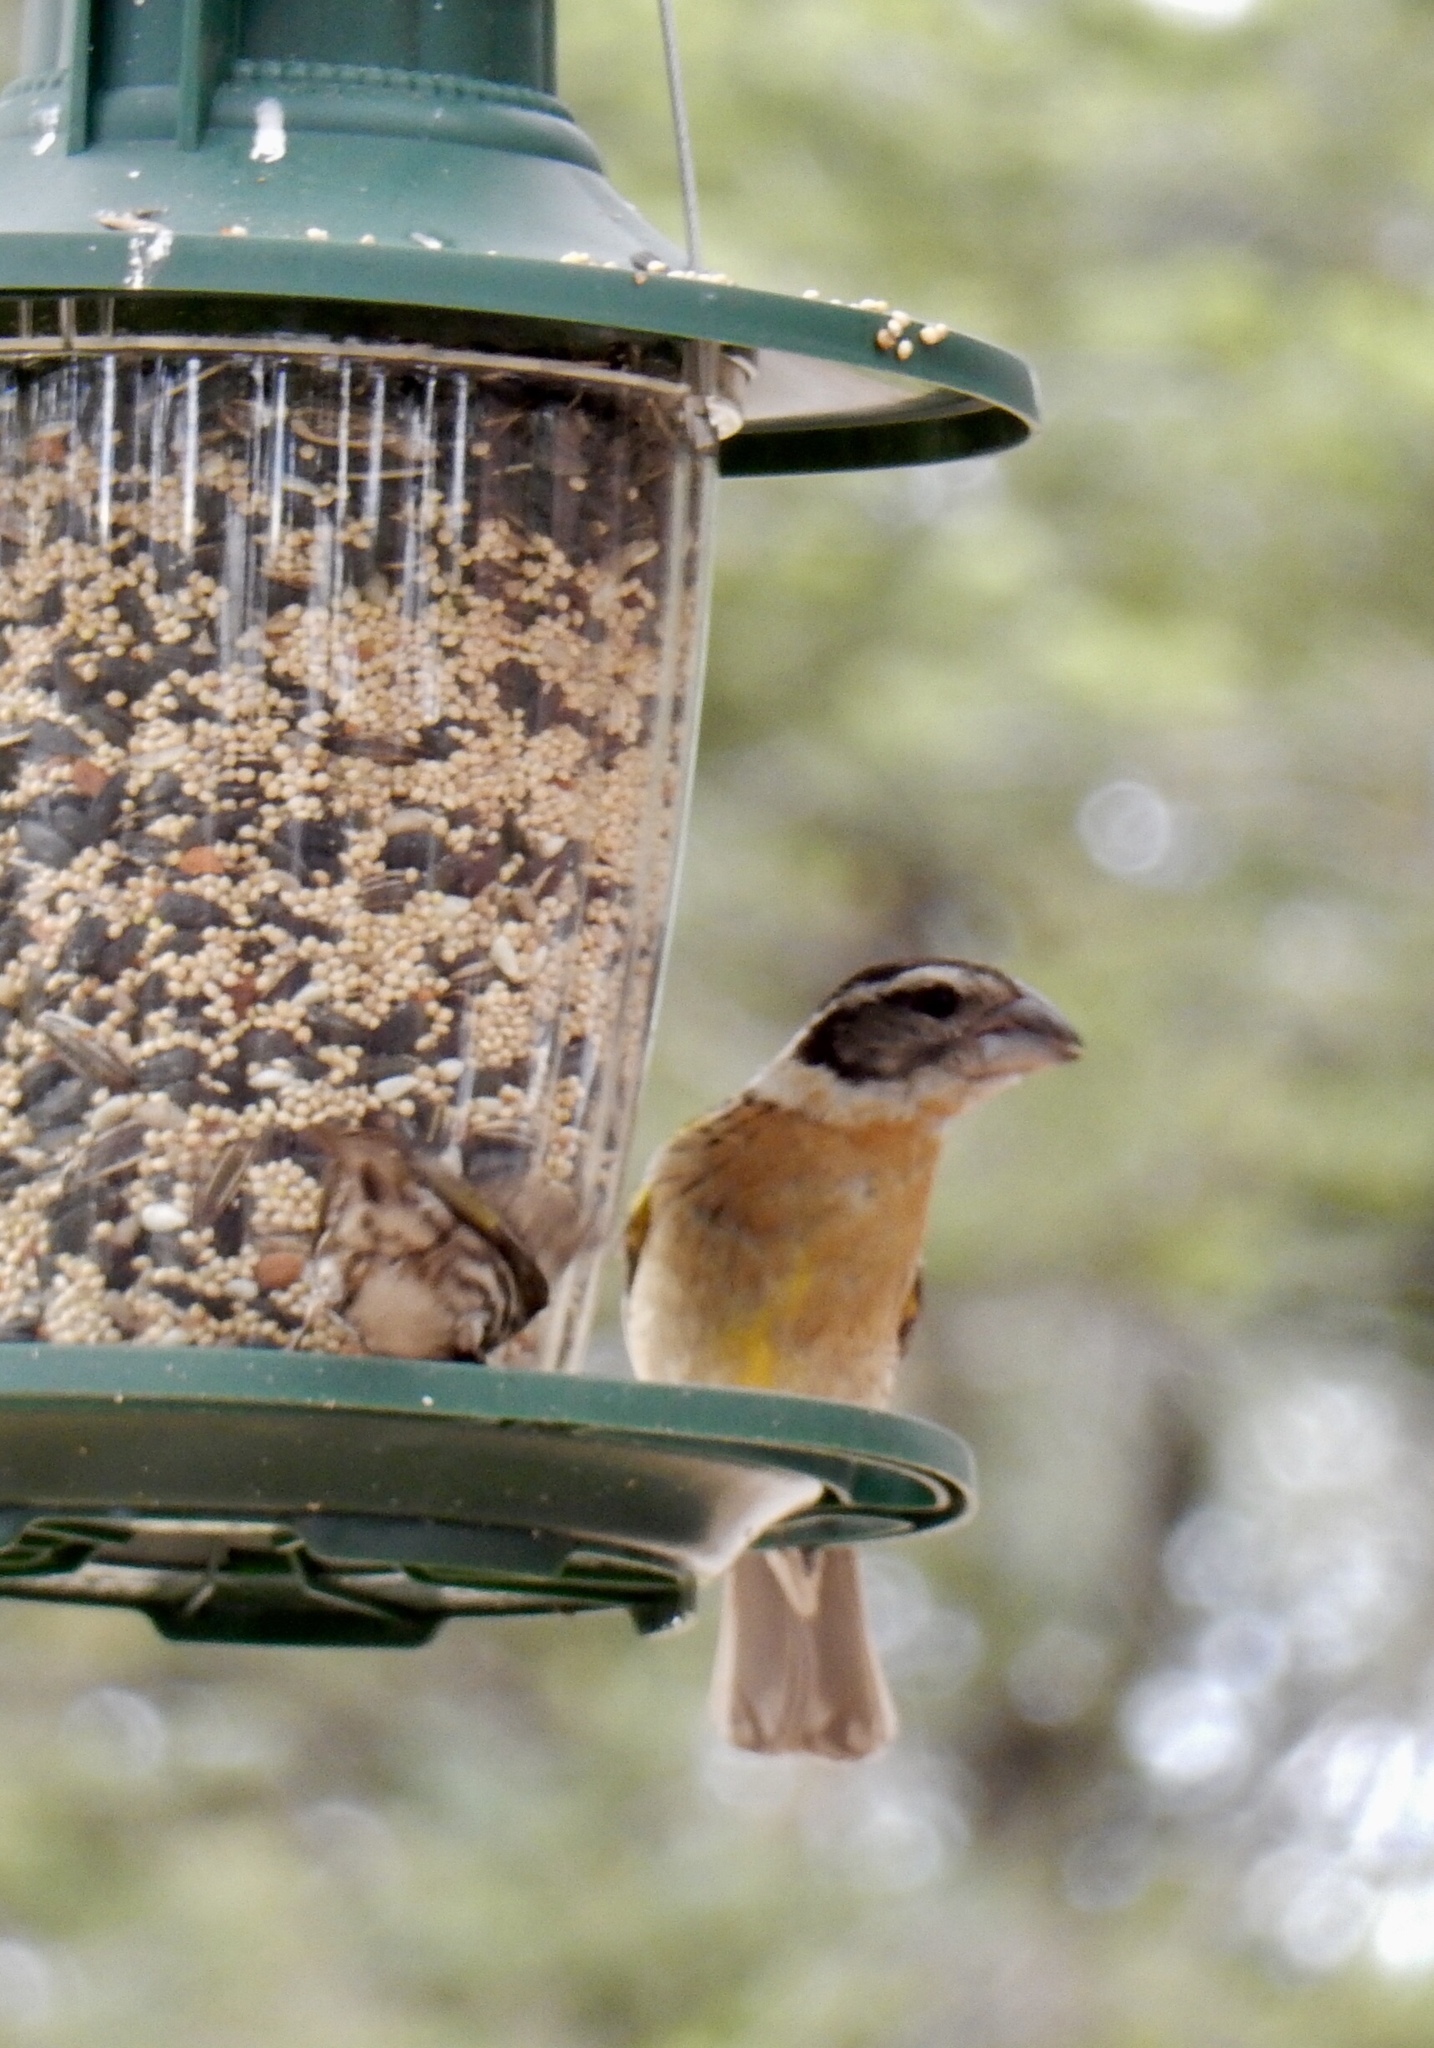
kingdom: Animalia
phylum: Chordata
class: Aves
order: Passeriformes
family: Cardinalidae
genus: Pheucticus
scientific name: Pheucticus melanocephalus
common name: Black-headed grosbeak
